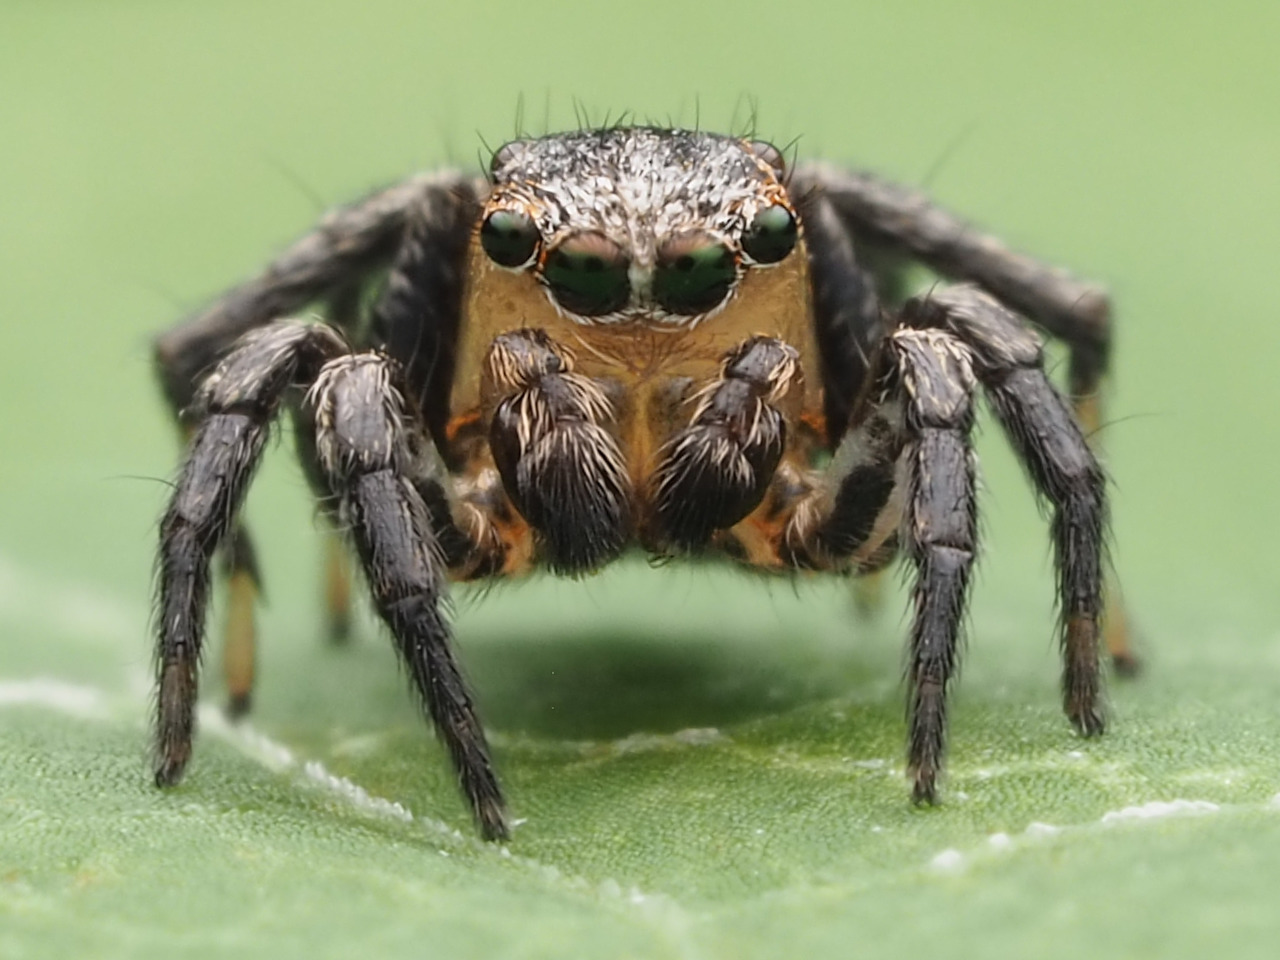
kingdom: Animalia
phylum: Arthropoda
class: Arachnida
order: Araneae
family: Salticidae
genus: Naphrys
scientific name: Naphrys pulex
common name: Flea jumping spider
